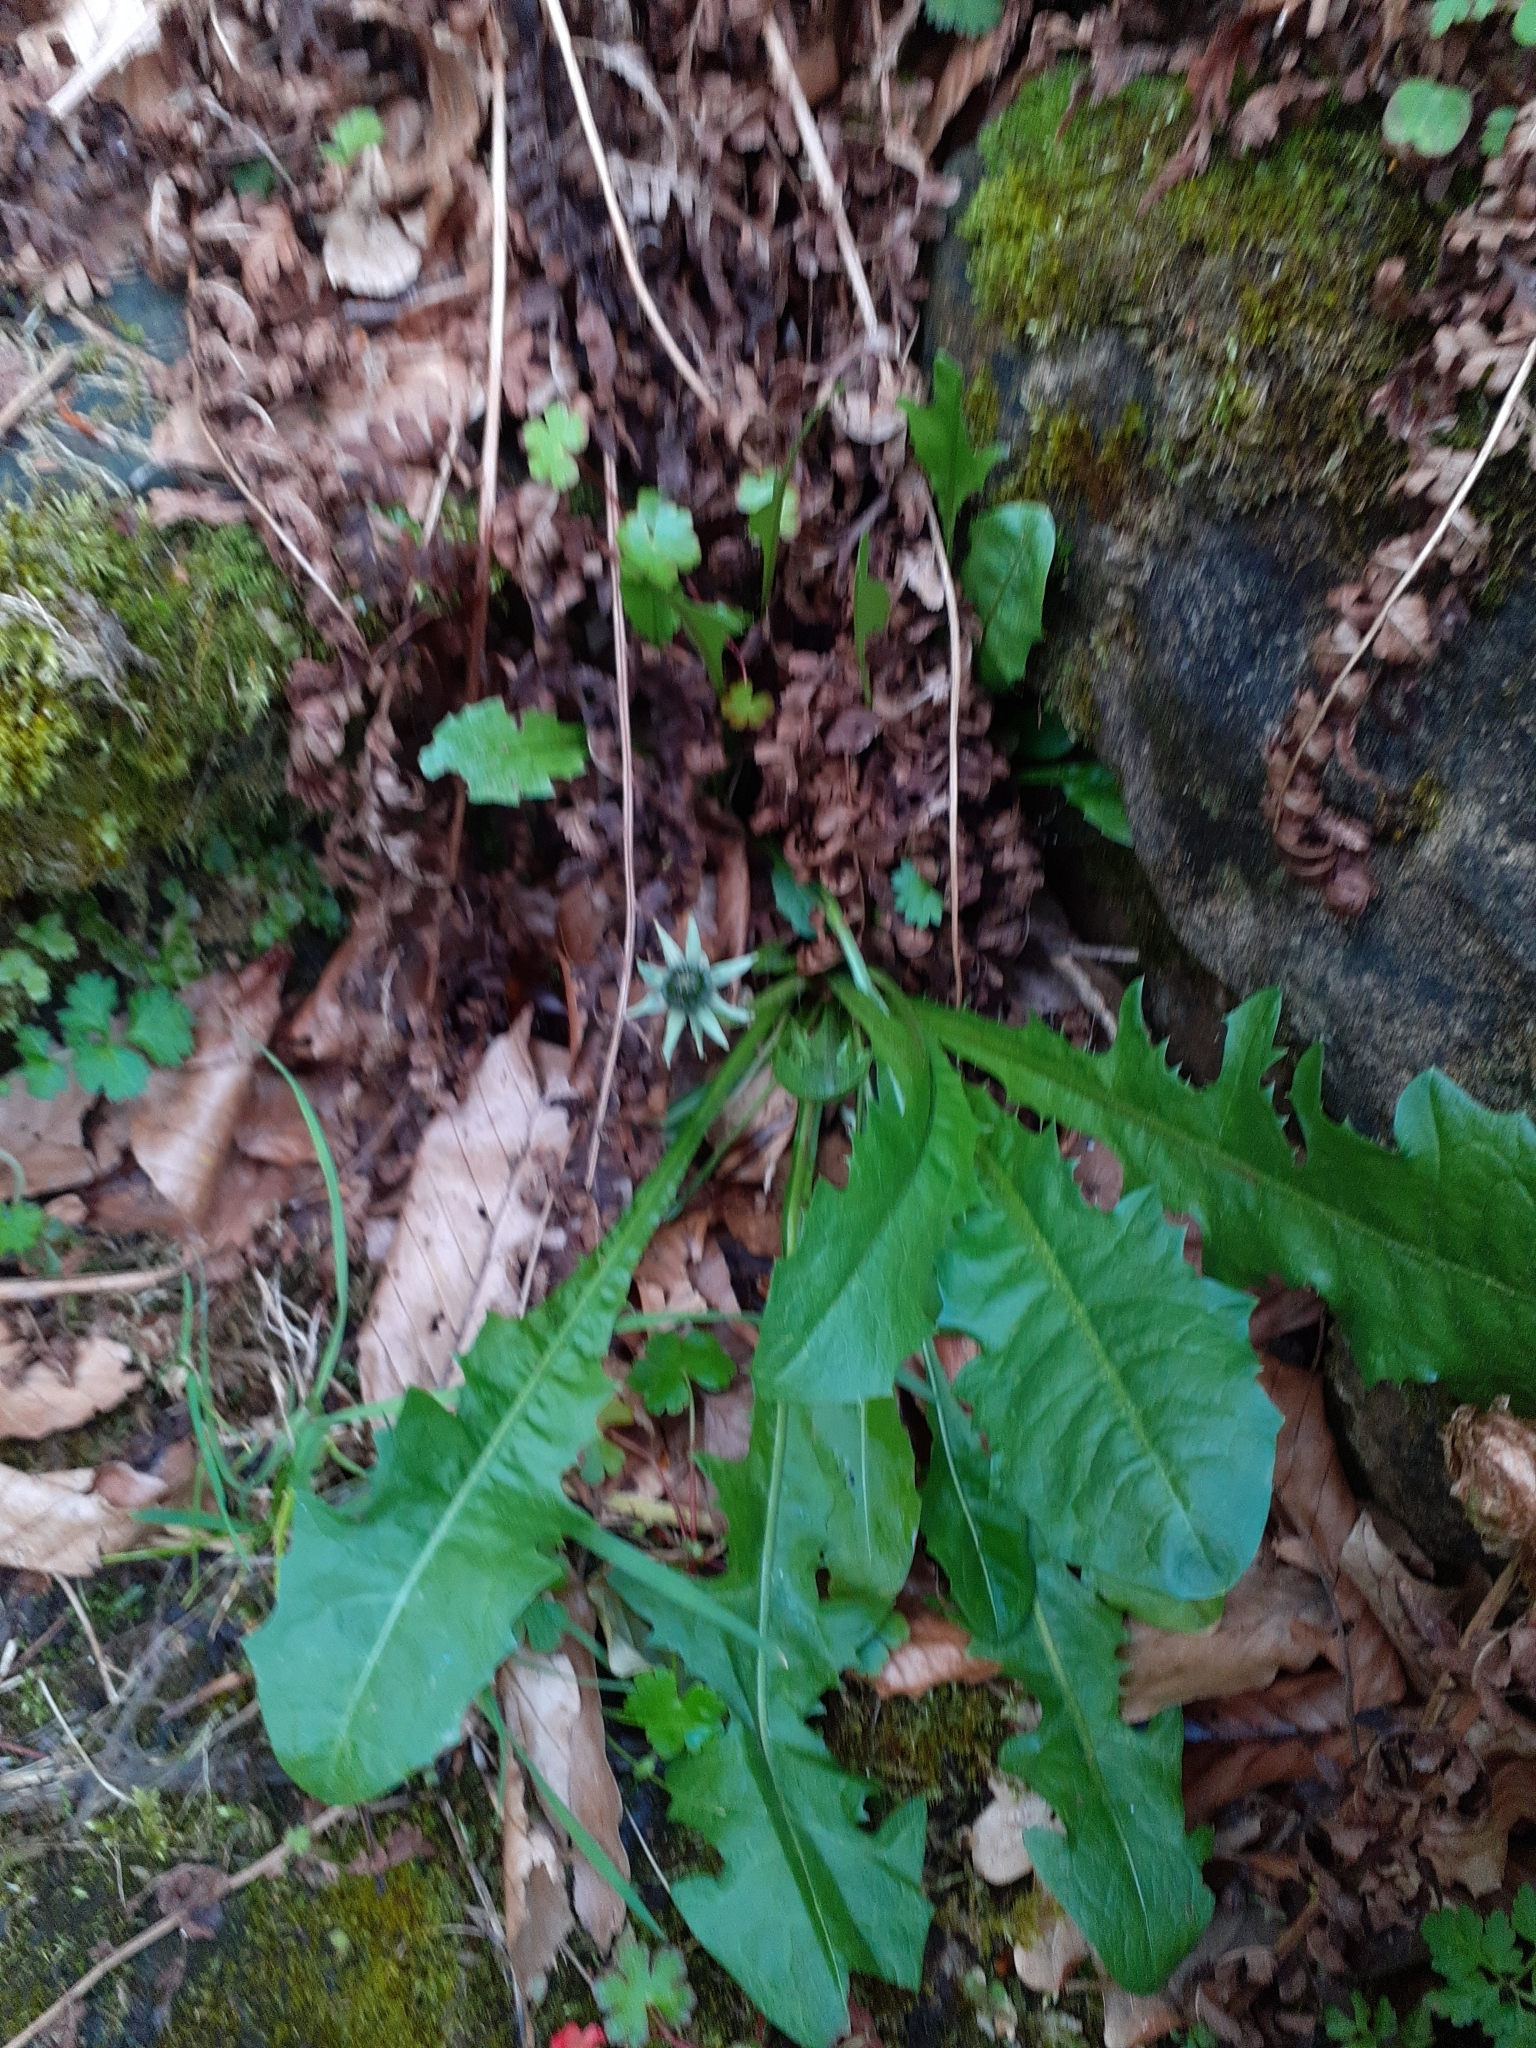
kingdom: Plantae
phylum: Tracheophyta
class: Magnoliopsida
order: Asterales
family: Asteraceae
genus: Taraxacum
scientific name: Taraxacum officinale
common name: Common dandelion
